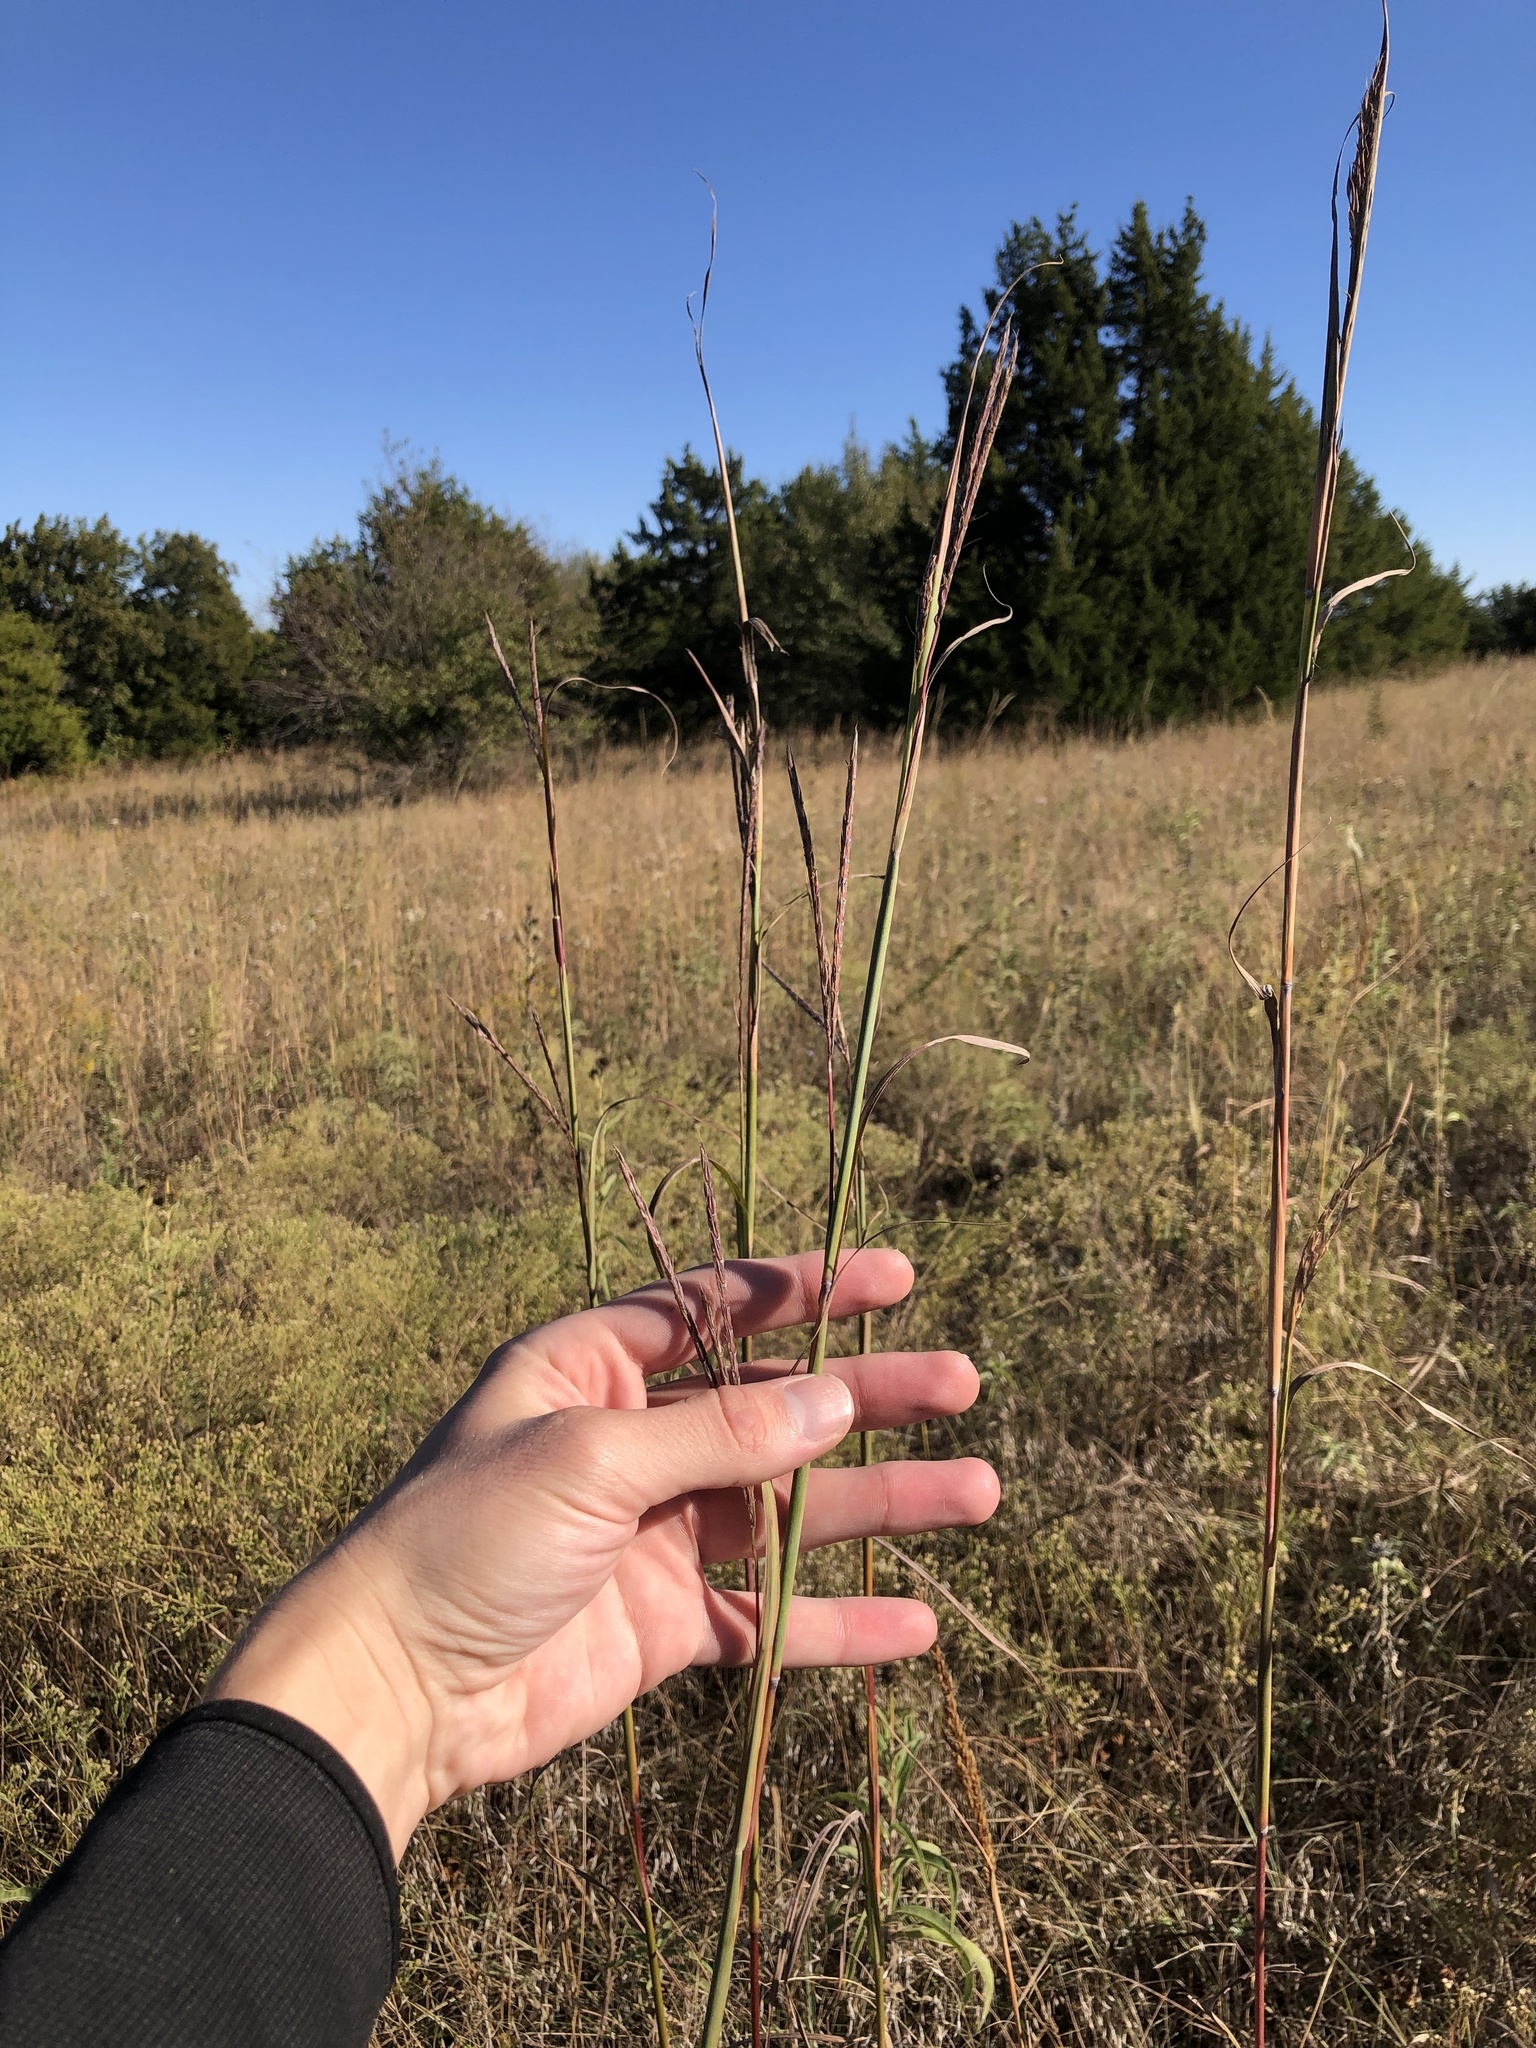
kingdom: Plantae
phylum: Tracheophyta
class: Liliopsida
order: Poales
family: Poaceae
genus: Andropogon
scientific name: Andropogon gerardi
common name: Big bluestem
